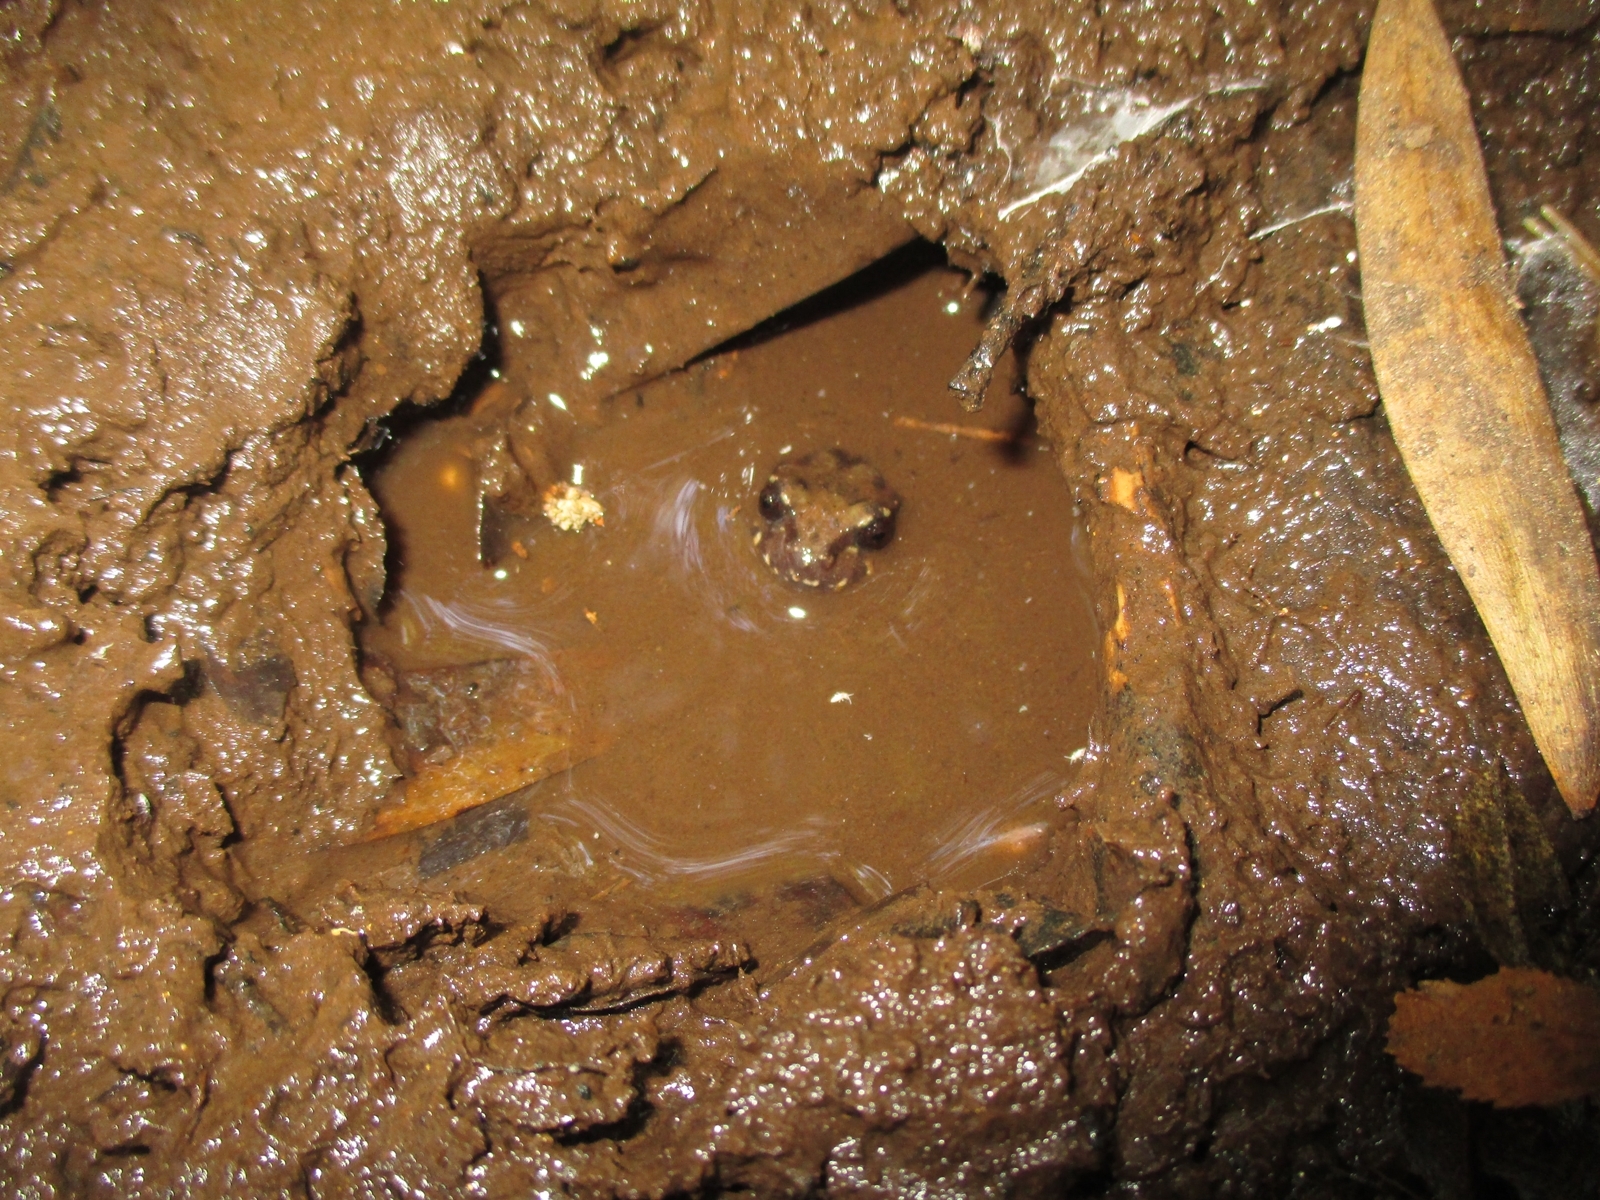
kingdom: Animalia
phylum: Chordata
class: Amphibia
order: Anura
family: Alsodidae
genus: Eupsophus
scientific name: Eupsophus roseus
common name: Rosy ground frog
